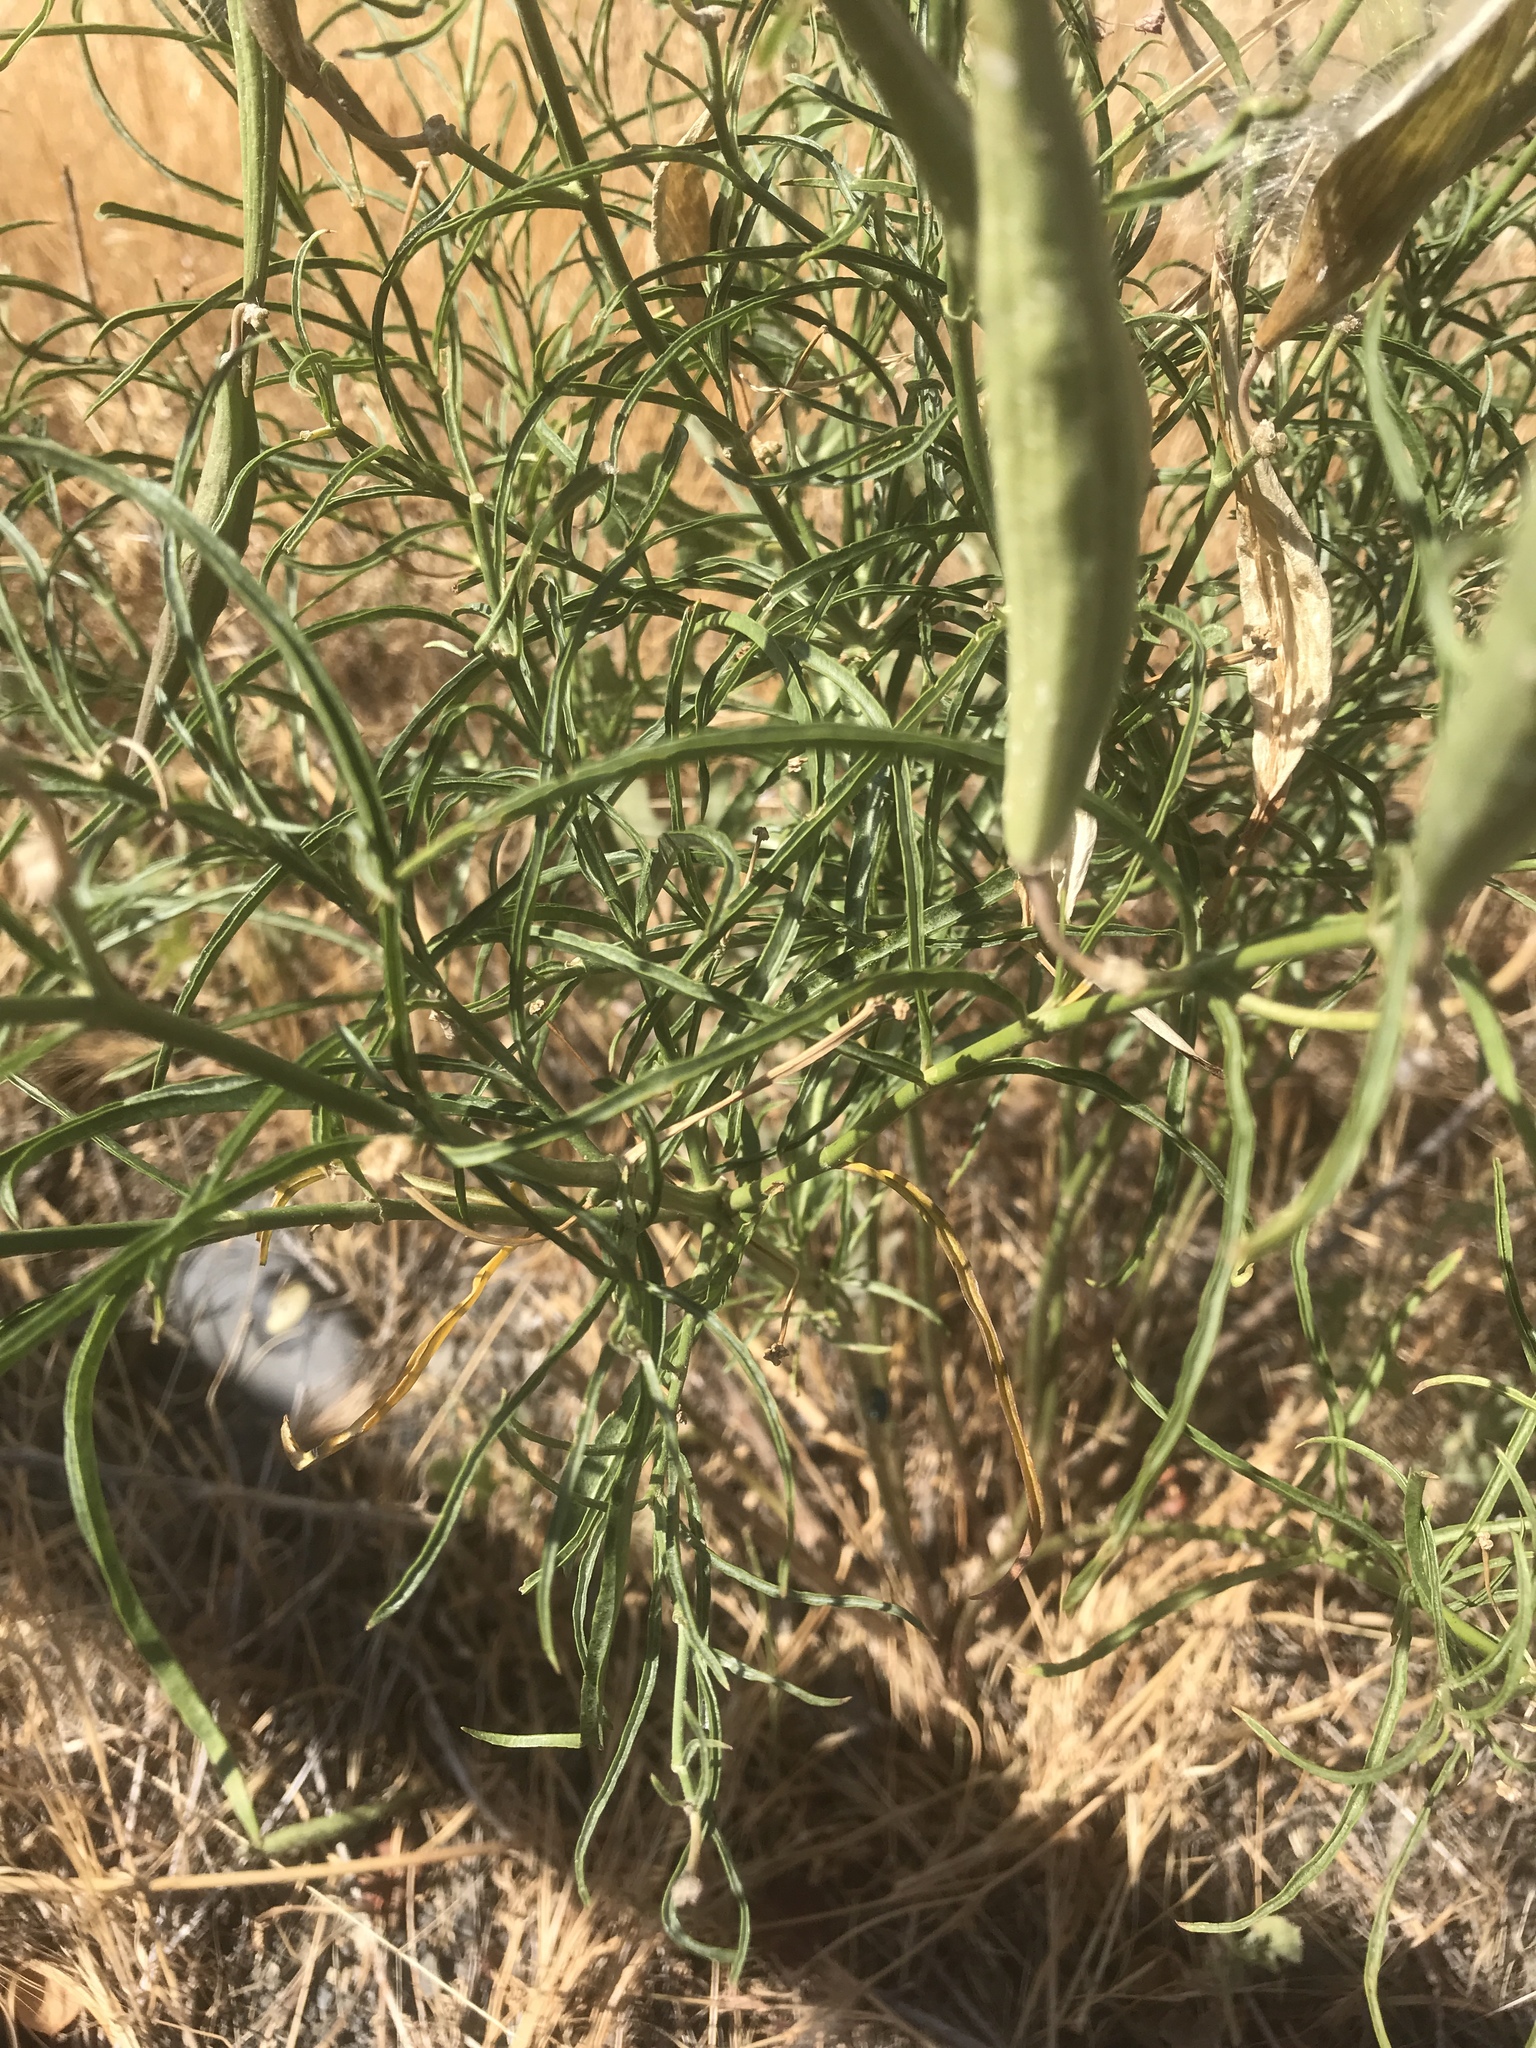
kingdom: Plantae
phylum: Tracheophyta
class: Magnoliopsida
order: Gentianales
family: Apocynaceae
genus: Asclepias
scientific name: Asclepias fascicularis
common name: Mexican milkweed
